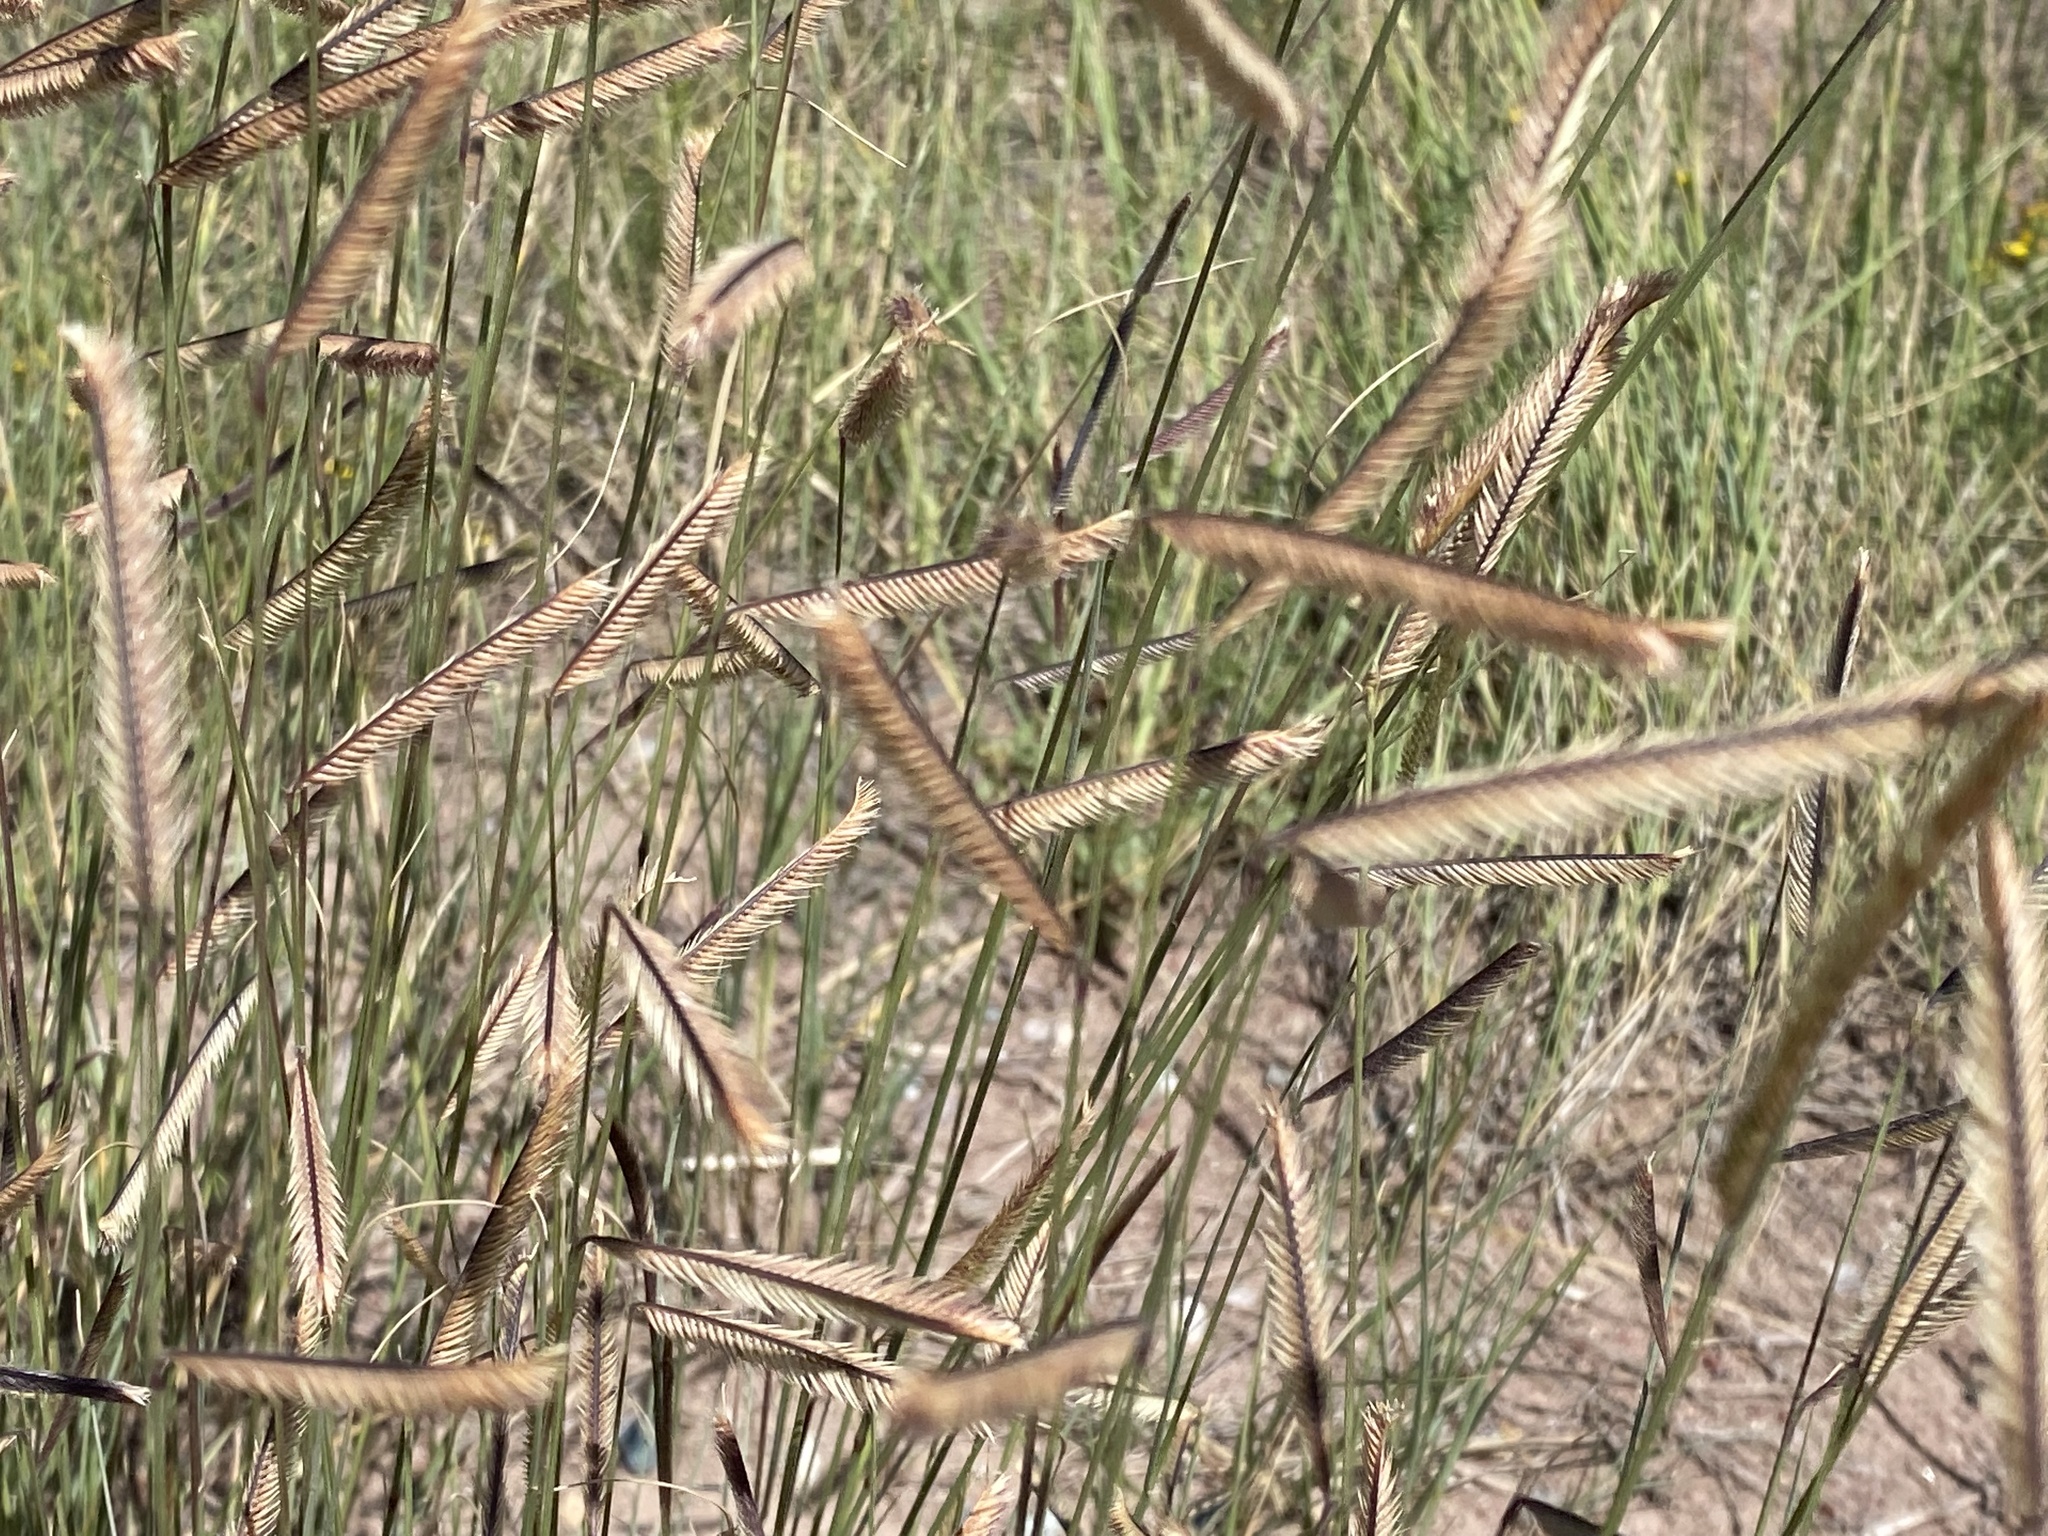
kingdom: Plantae
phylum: Tracheophyta
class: Liliopsida
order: Poales
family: Poaceae
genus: Bouteloua
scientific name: Bouteloua gracilis
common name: Blue grama
